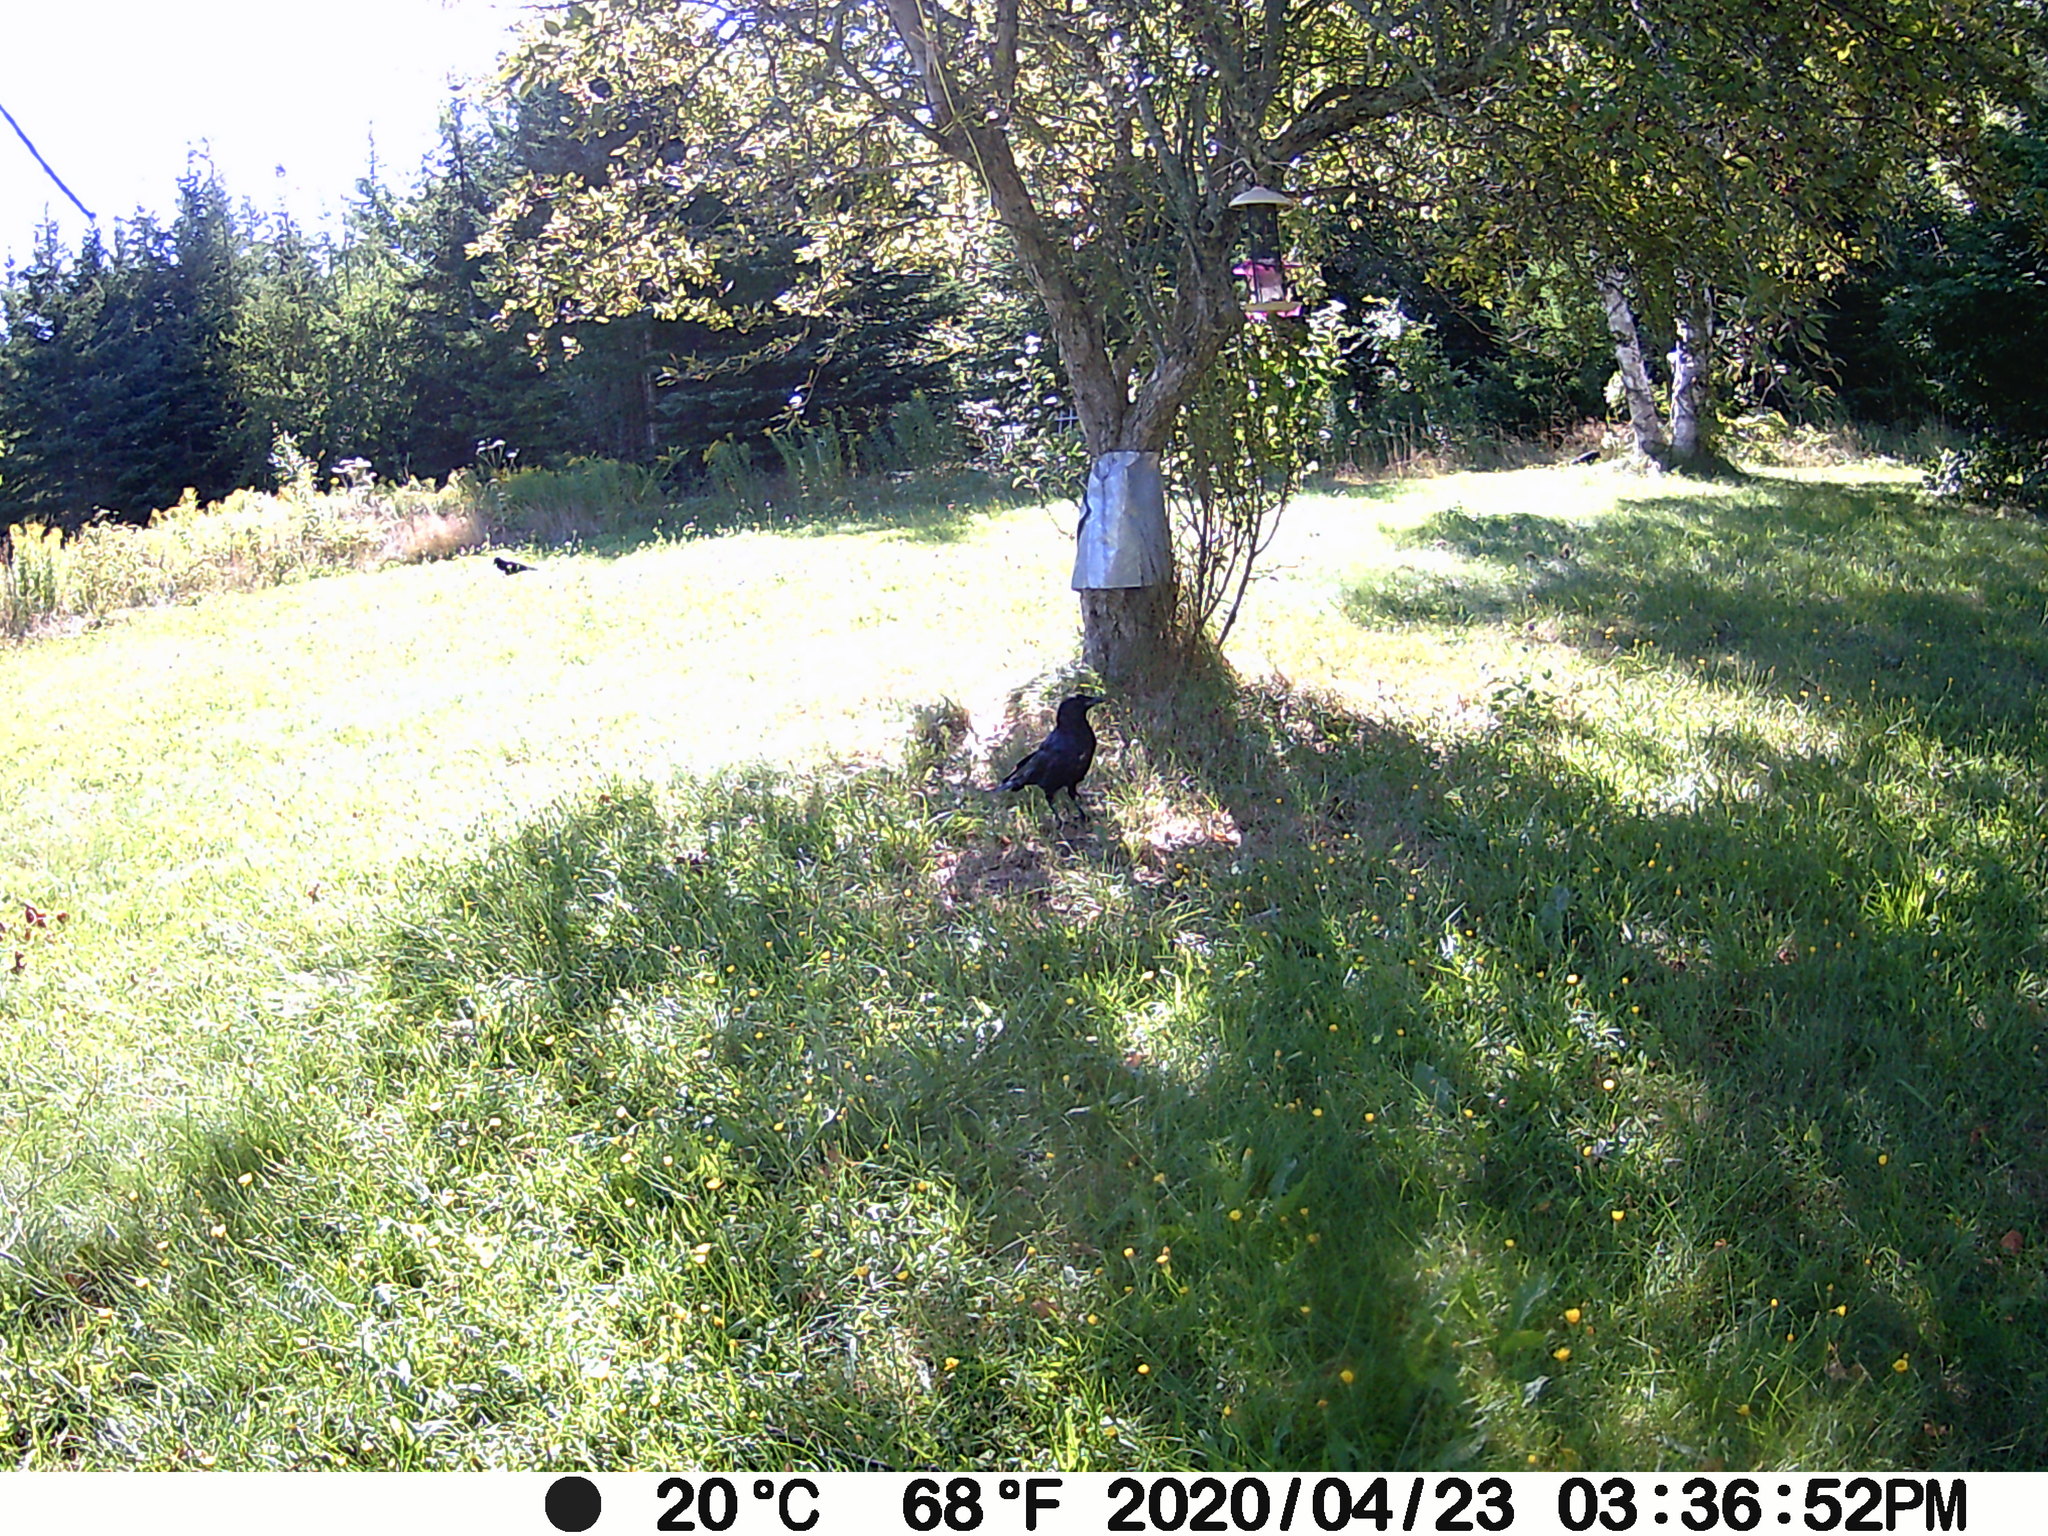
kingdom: Animalia
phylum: Chordata
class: Aves
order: Passeriformes
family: Corvidae
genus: Corvus
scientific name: Corvus brachyrhynchos
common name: American crow
